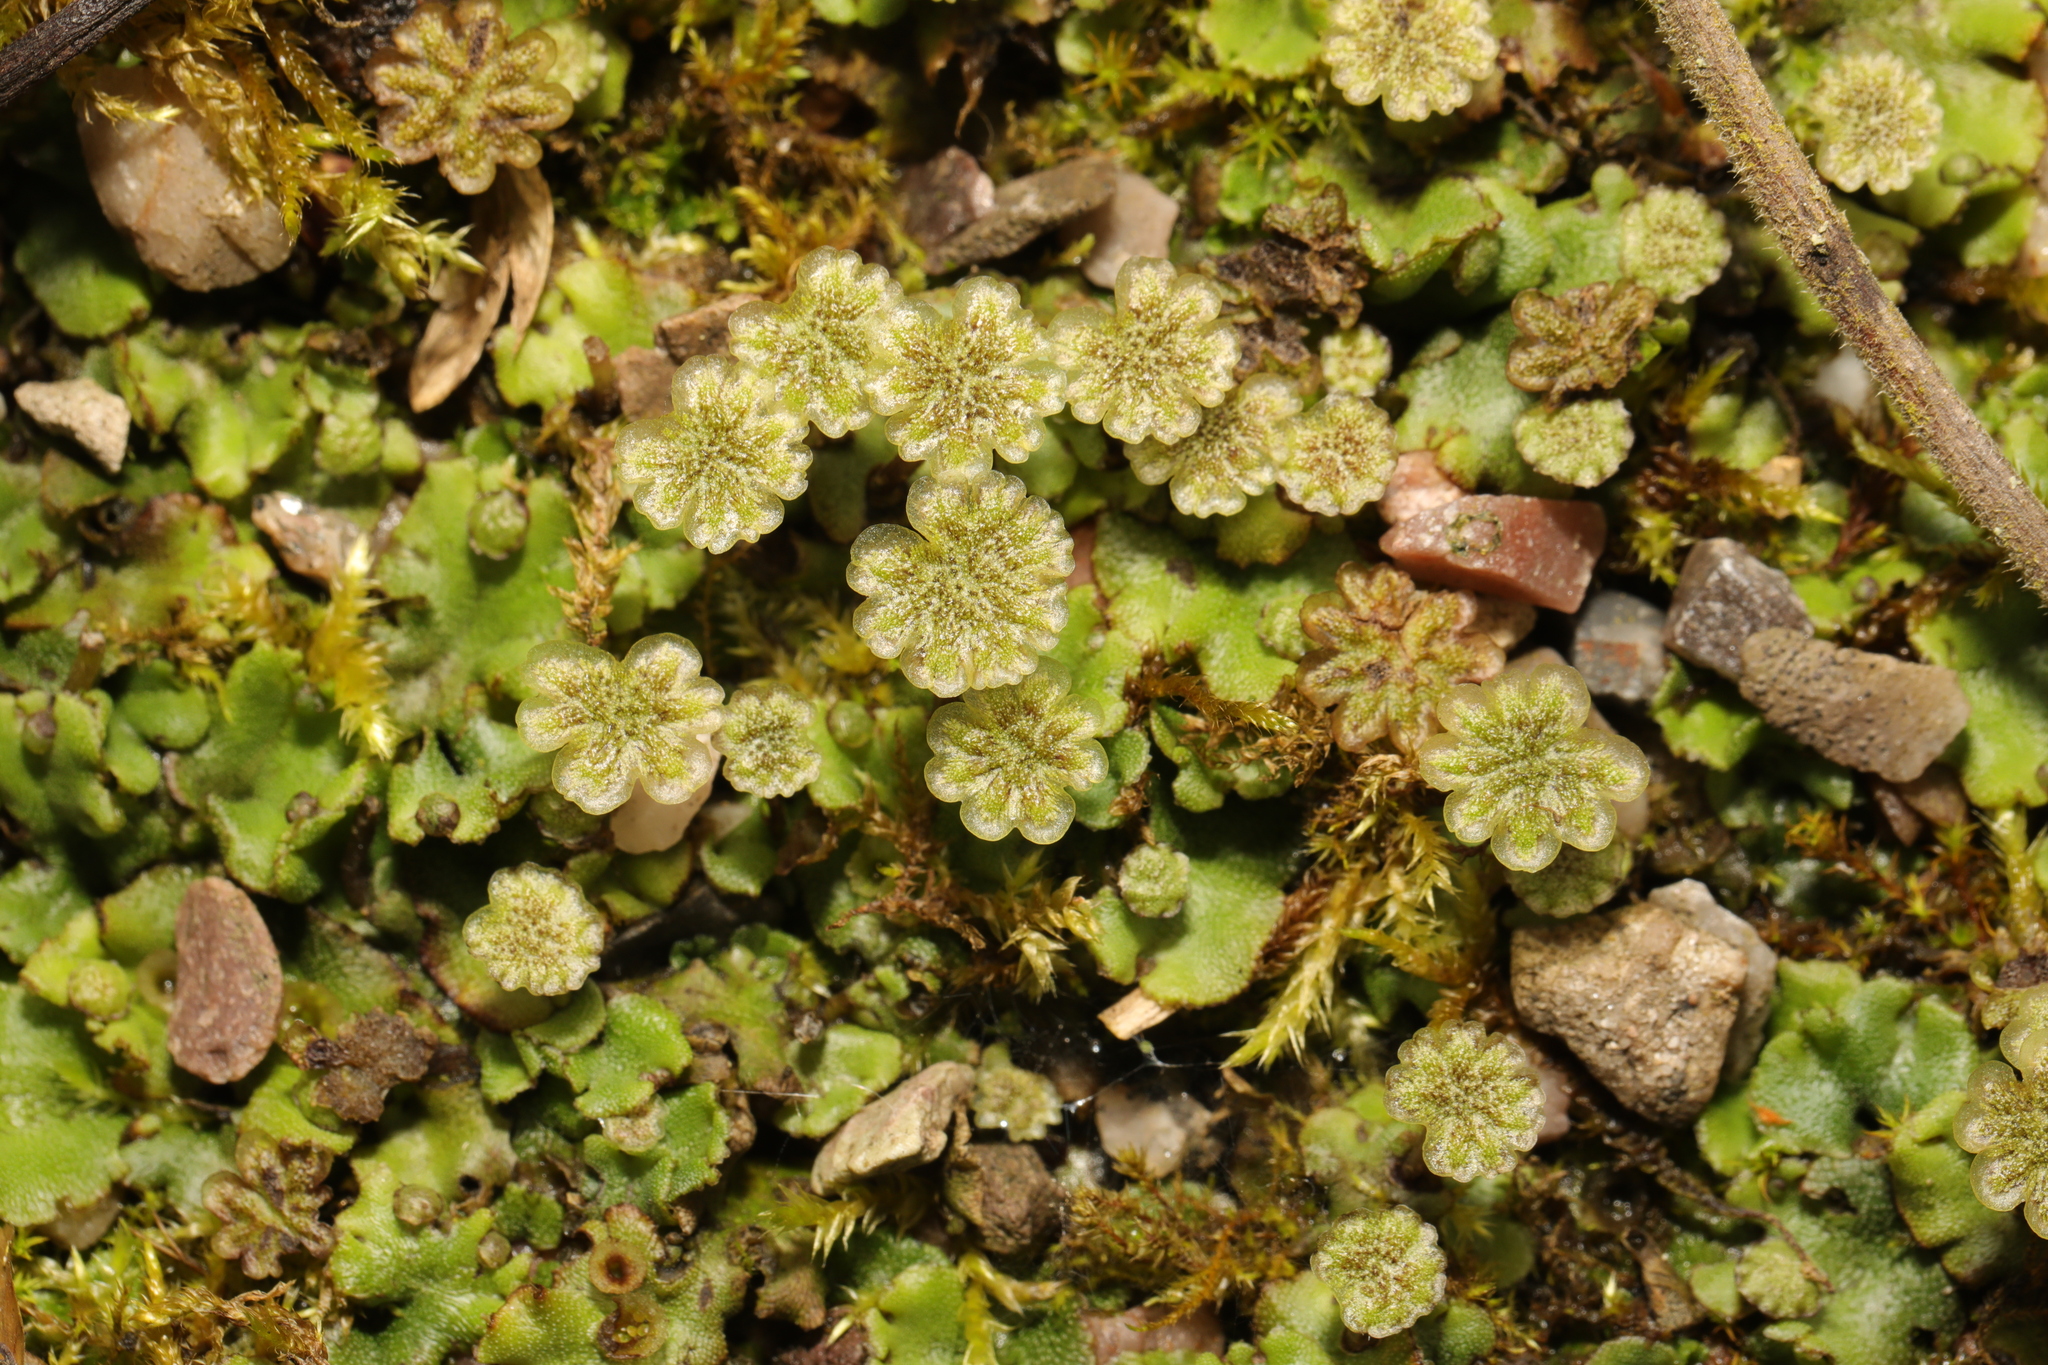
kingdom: Plantae
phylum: Marchantiophyta
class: Marchantiopsida
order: Marchantiales
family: Marchantiaceae
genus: Marchantia
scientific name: Marchantia polymorpha
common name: Common liverwort
